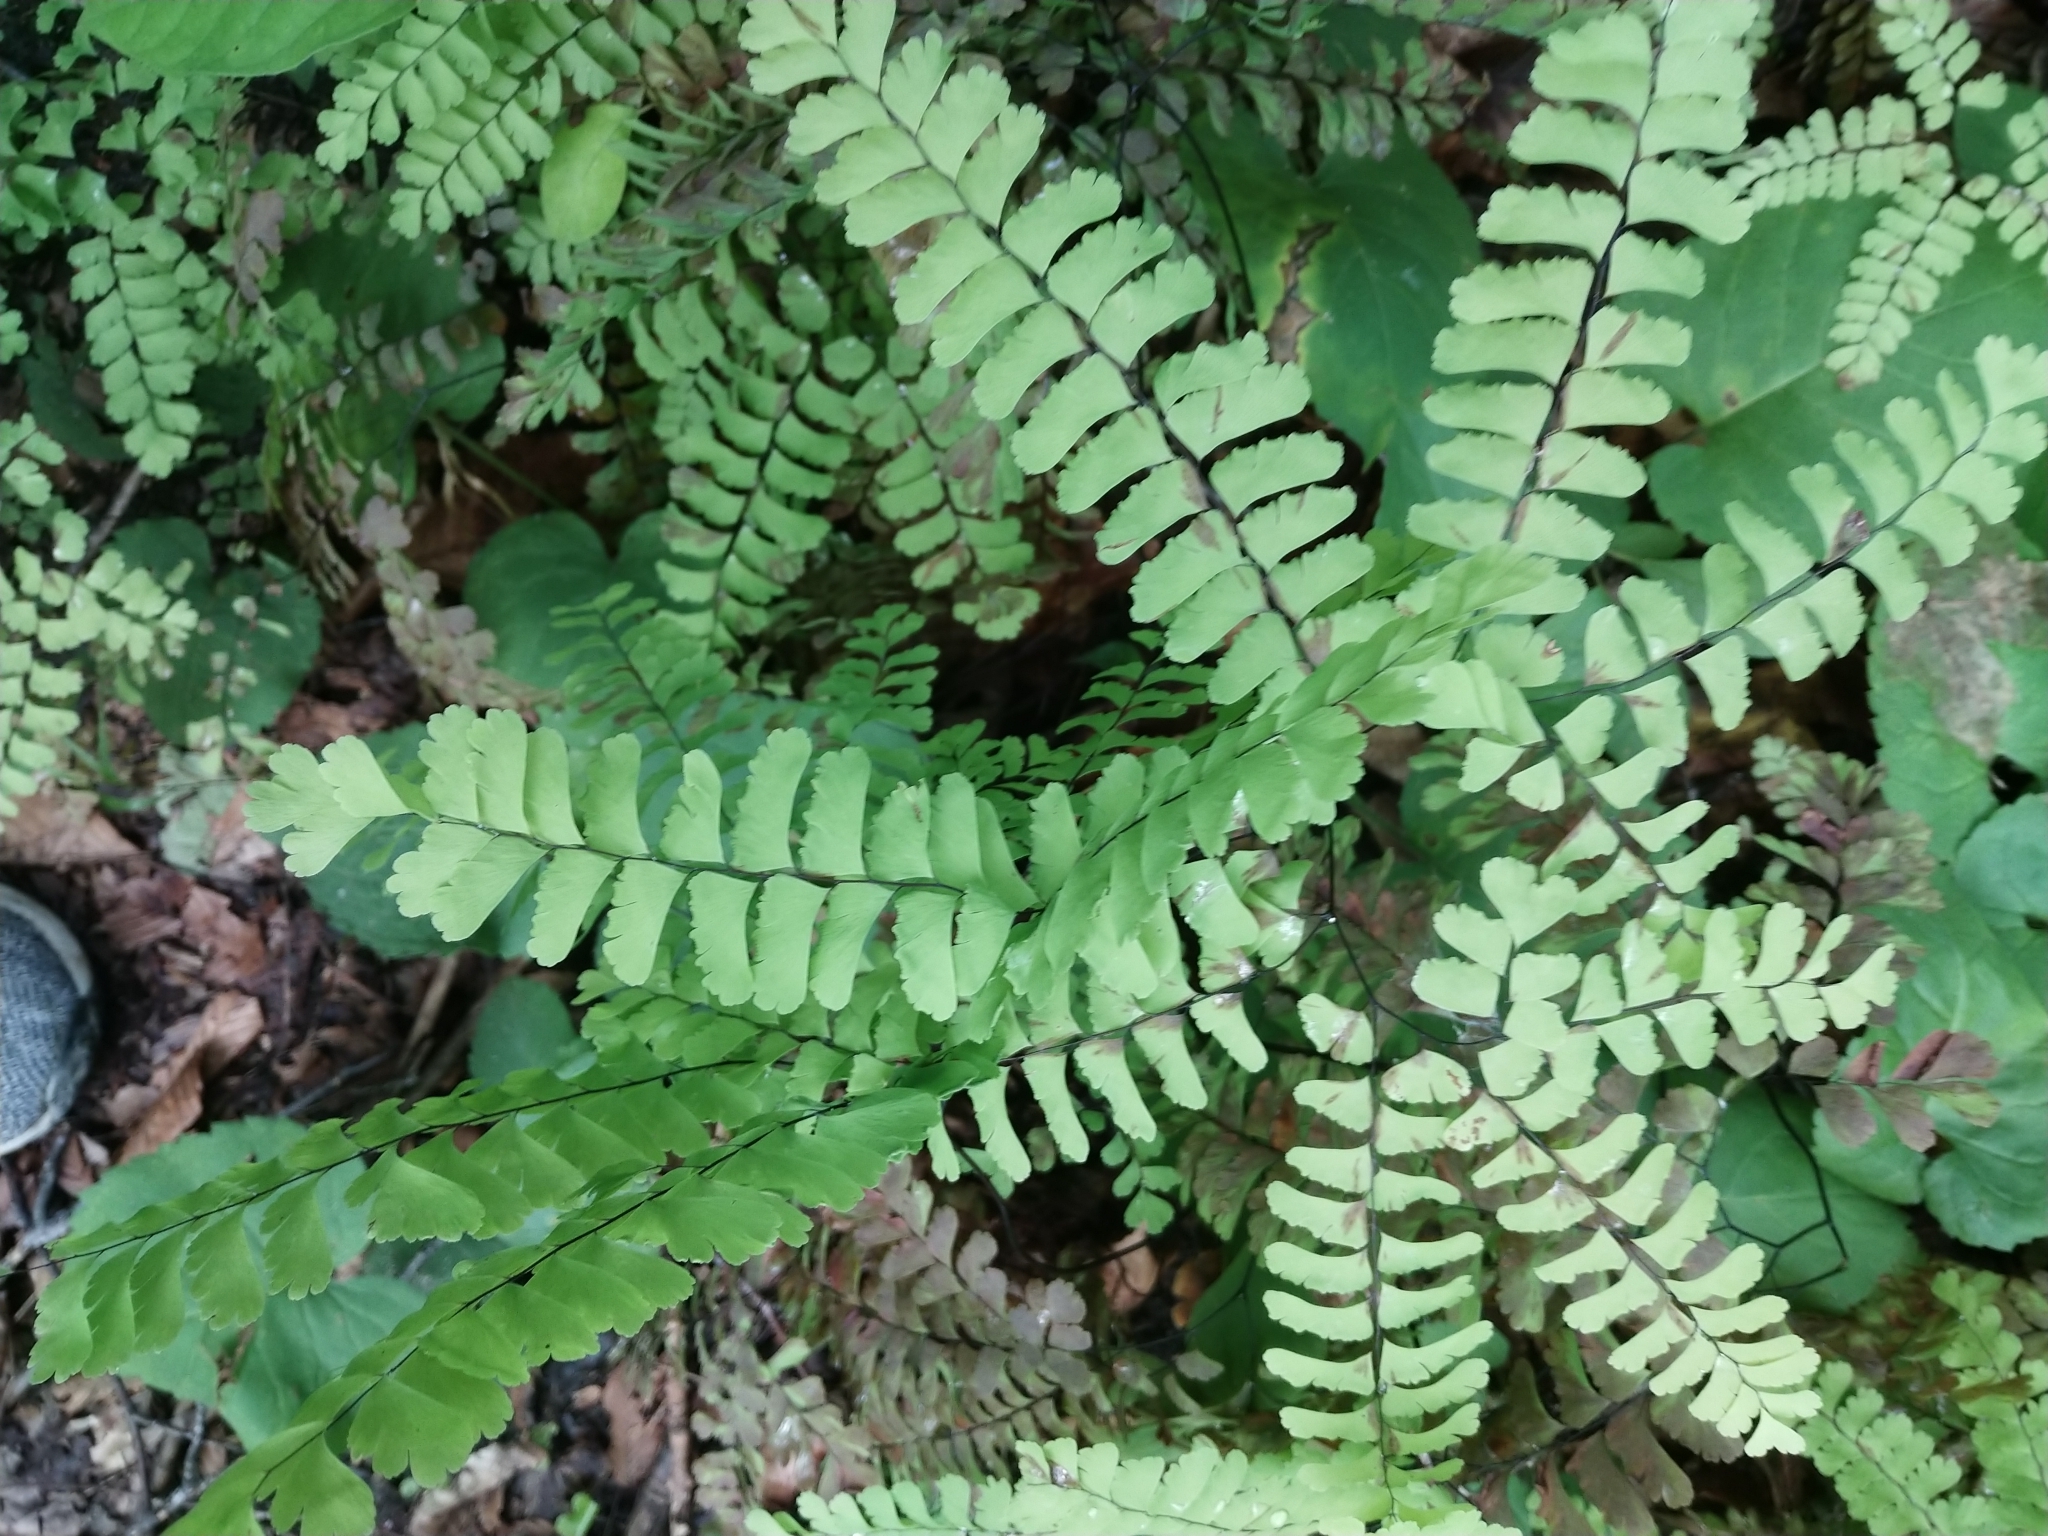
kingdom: Plantae
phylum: Tracheophyta
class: Polypodiopsida
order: Polypodiales
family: Pteridaceae
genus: Adiantum
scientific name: Adiantum pedatum
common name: Five-finger fern
